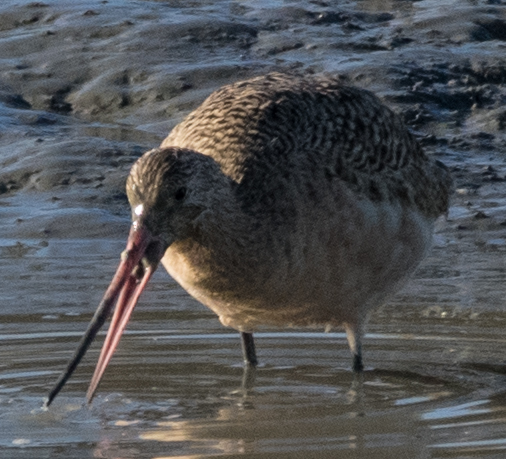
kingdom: Animalia
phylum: Chordata
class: Aves
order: Charadriiformes
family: Scolopacidae
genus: Limosa
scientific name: Limosa fedoa
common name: Marbled godwit
